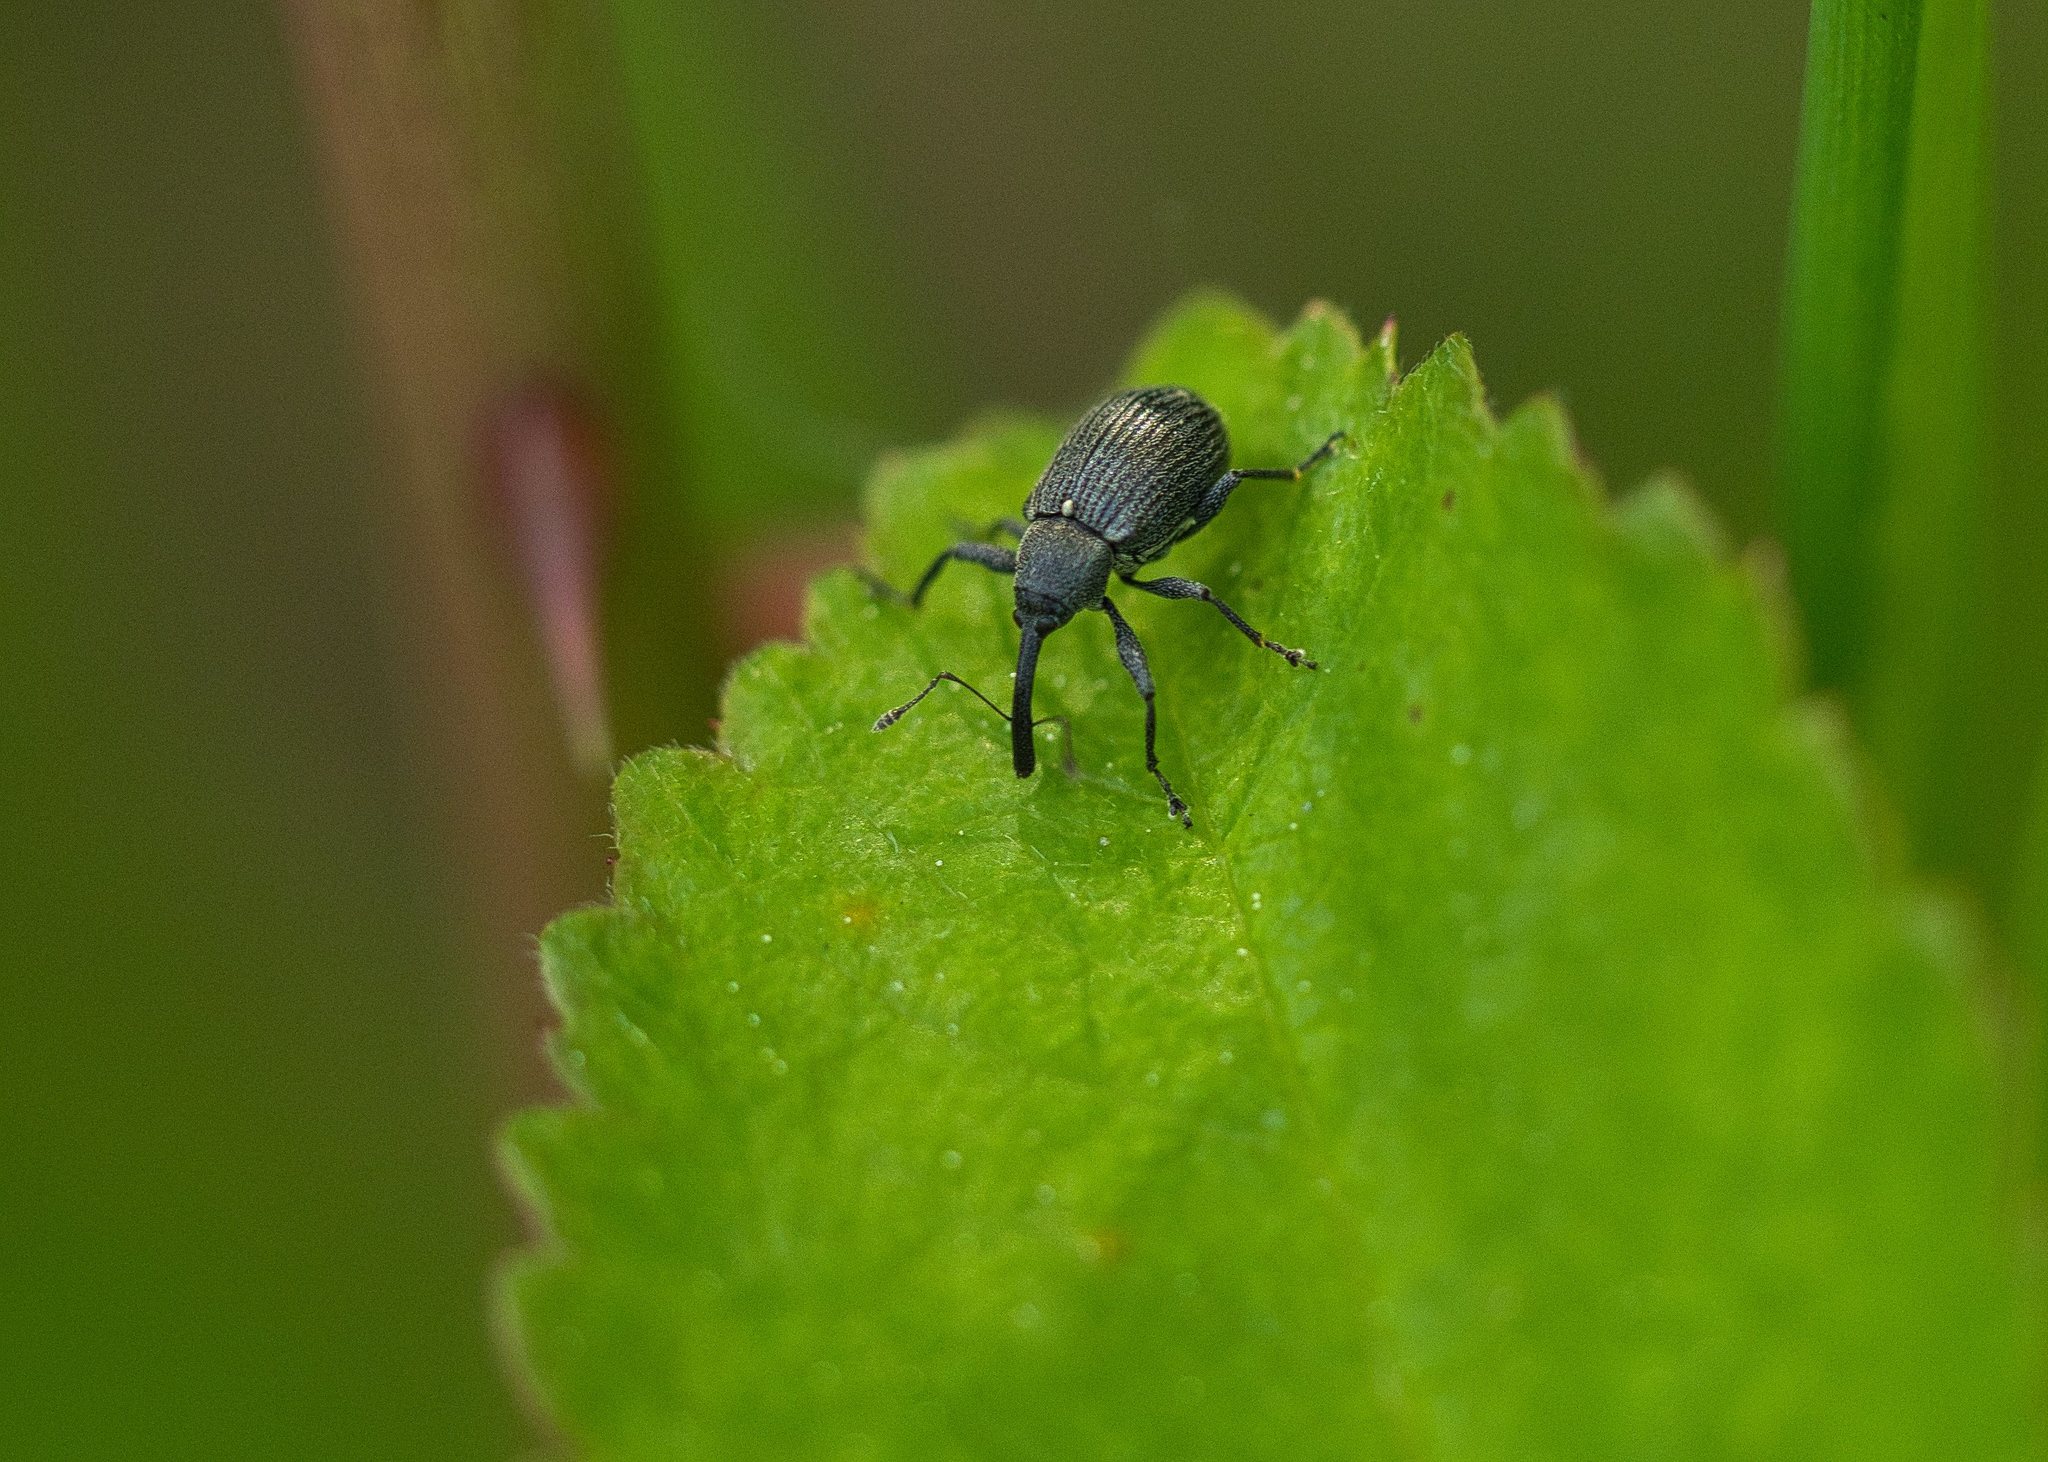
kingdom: Animalia
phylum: Arthropoda
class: Insecta
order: Coleoptera
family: Curculionidae
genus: Anthonomus
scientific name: Anthonomus rubi
